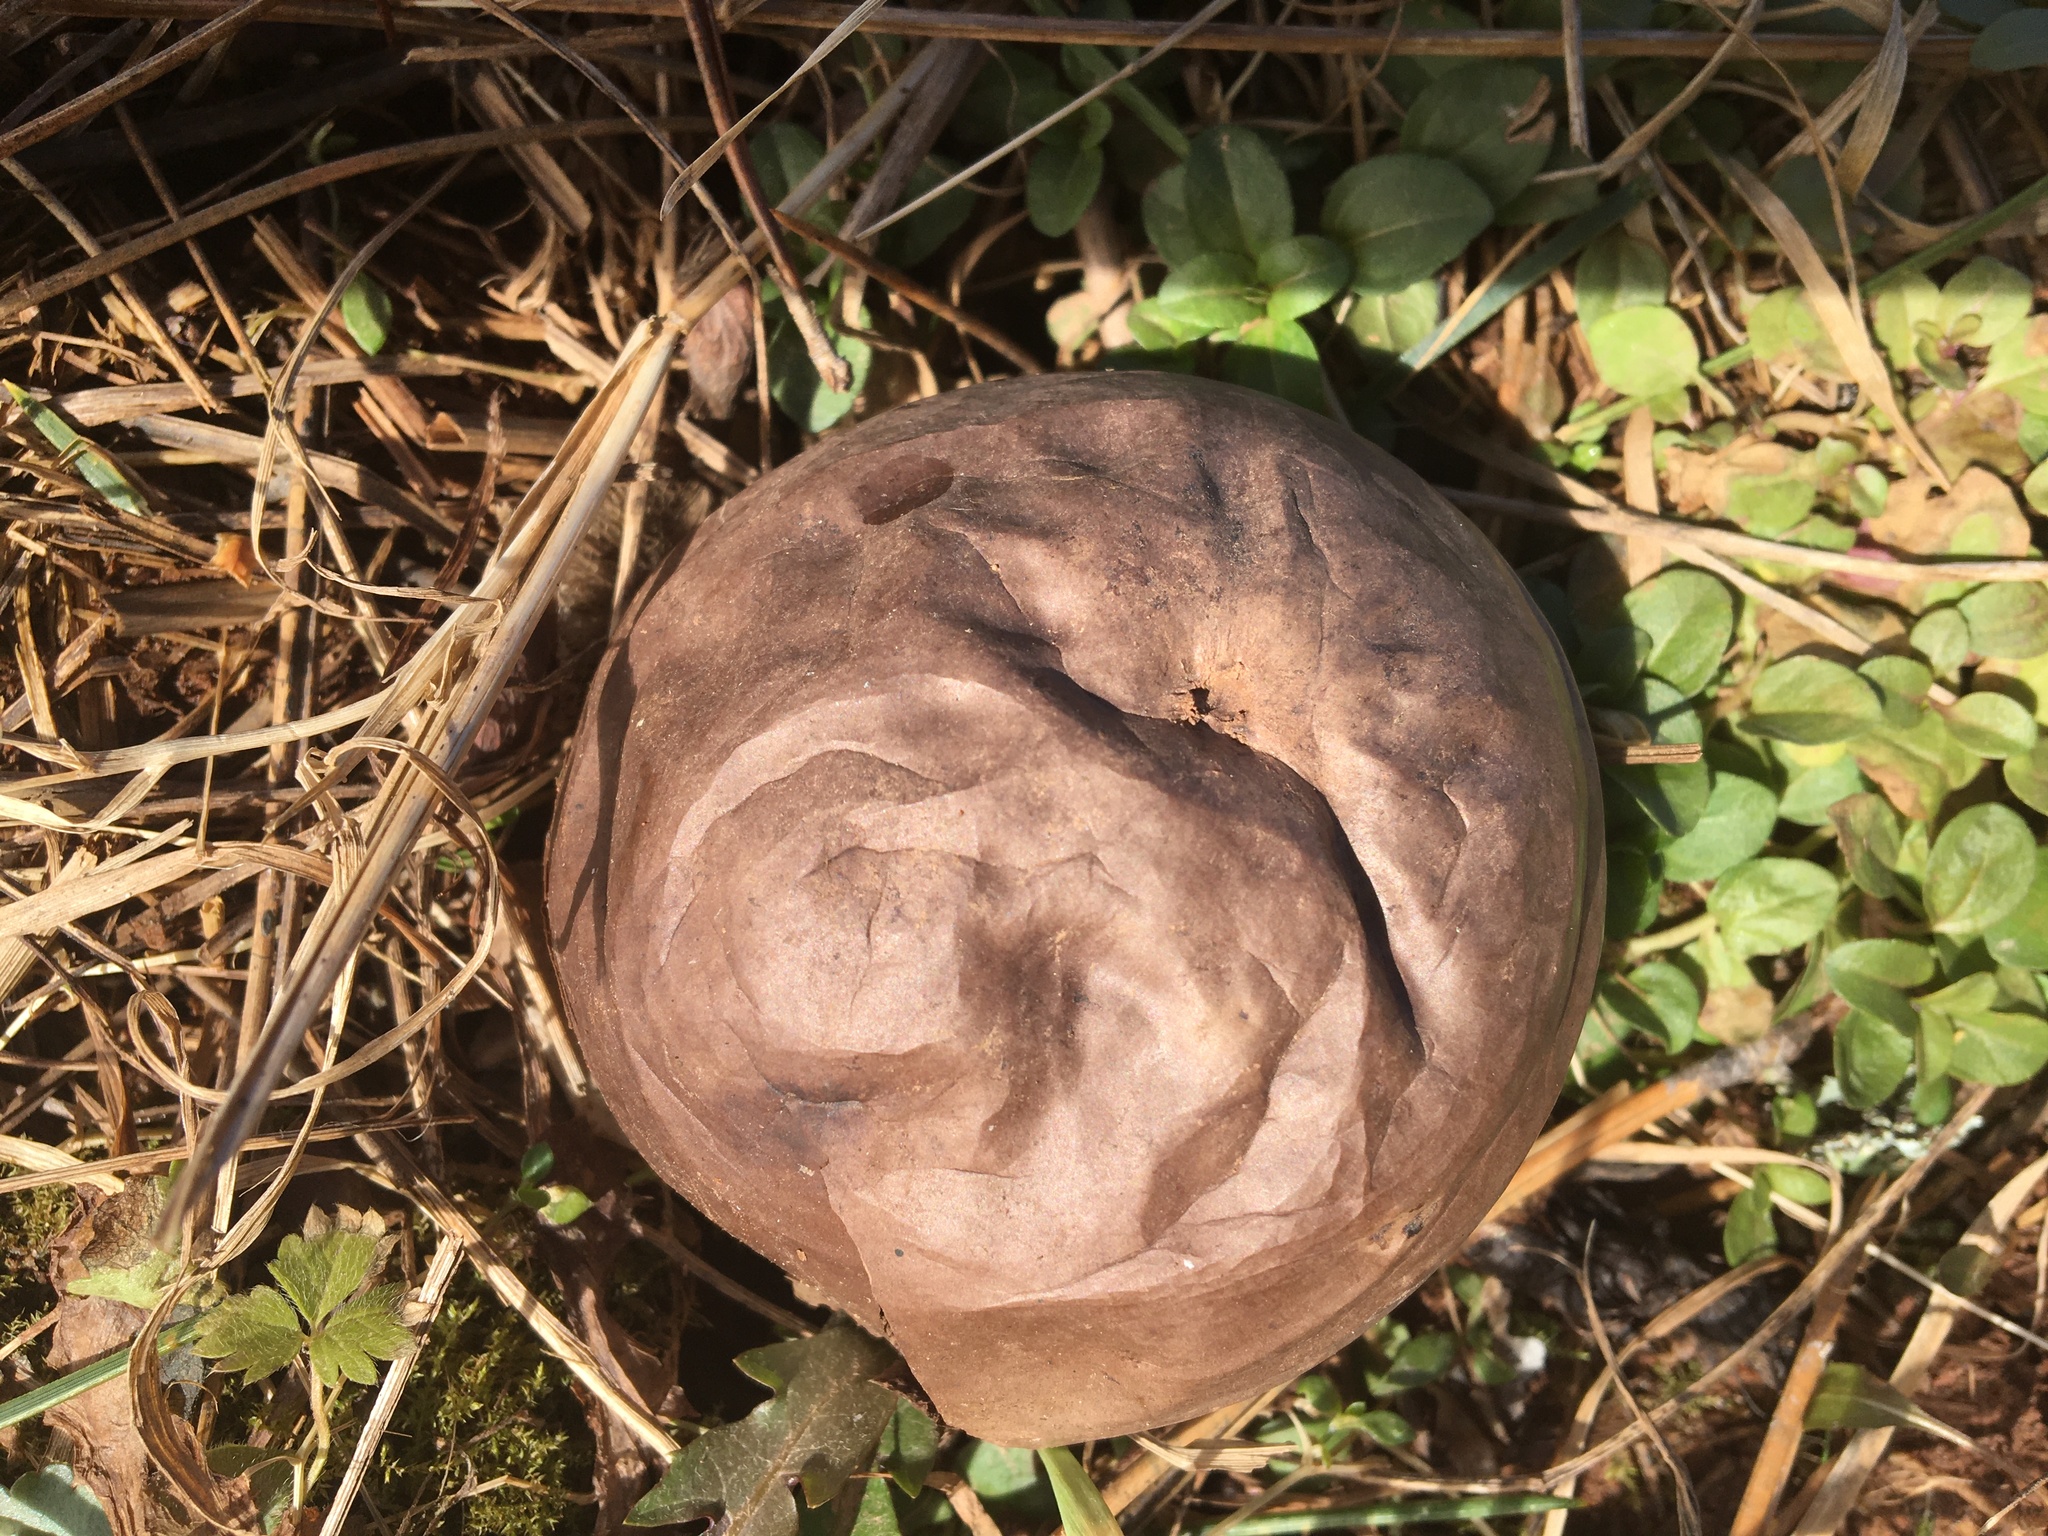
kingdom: Fungi
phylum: Basidiomycota
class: Agaricomycetes
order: Agaricales
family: Lycoperdaceae
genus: Calvatia
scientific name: Calvatia cyathiformis
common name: Purple-spored puffball
